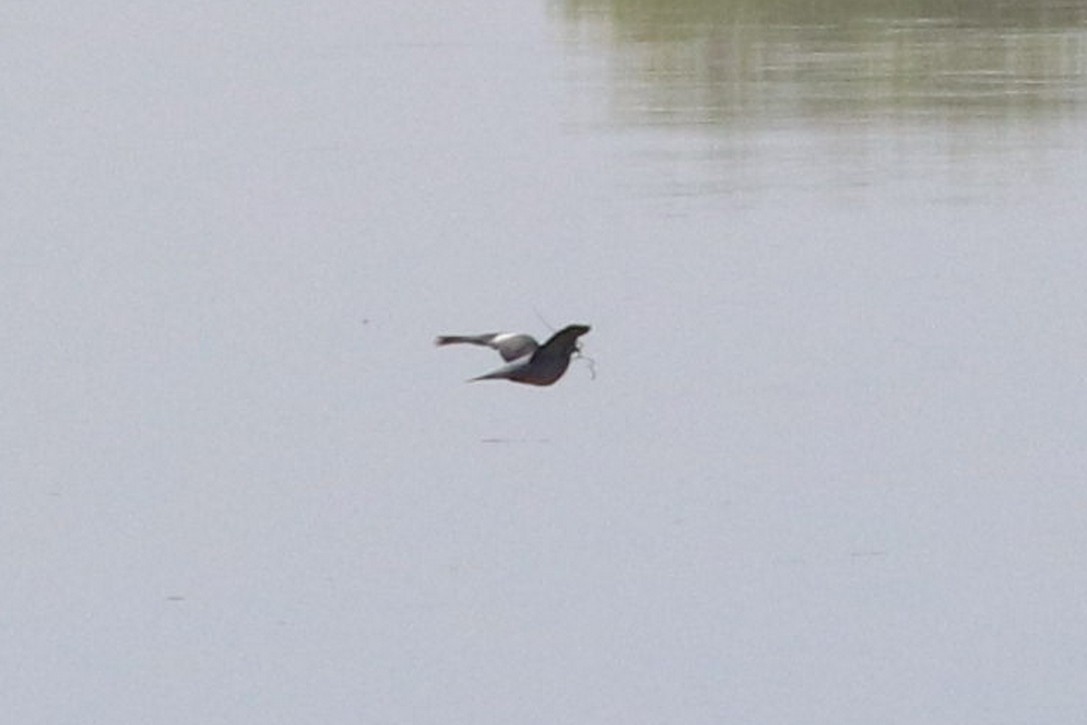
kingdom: Animalia
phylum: Chordata
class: Aves
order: Columbiformes
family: Columbidae
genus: Columba
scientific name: Columba palumbus
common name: Common wood pigeon
